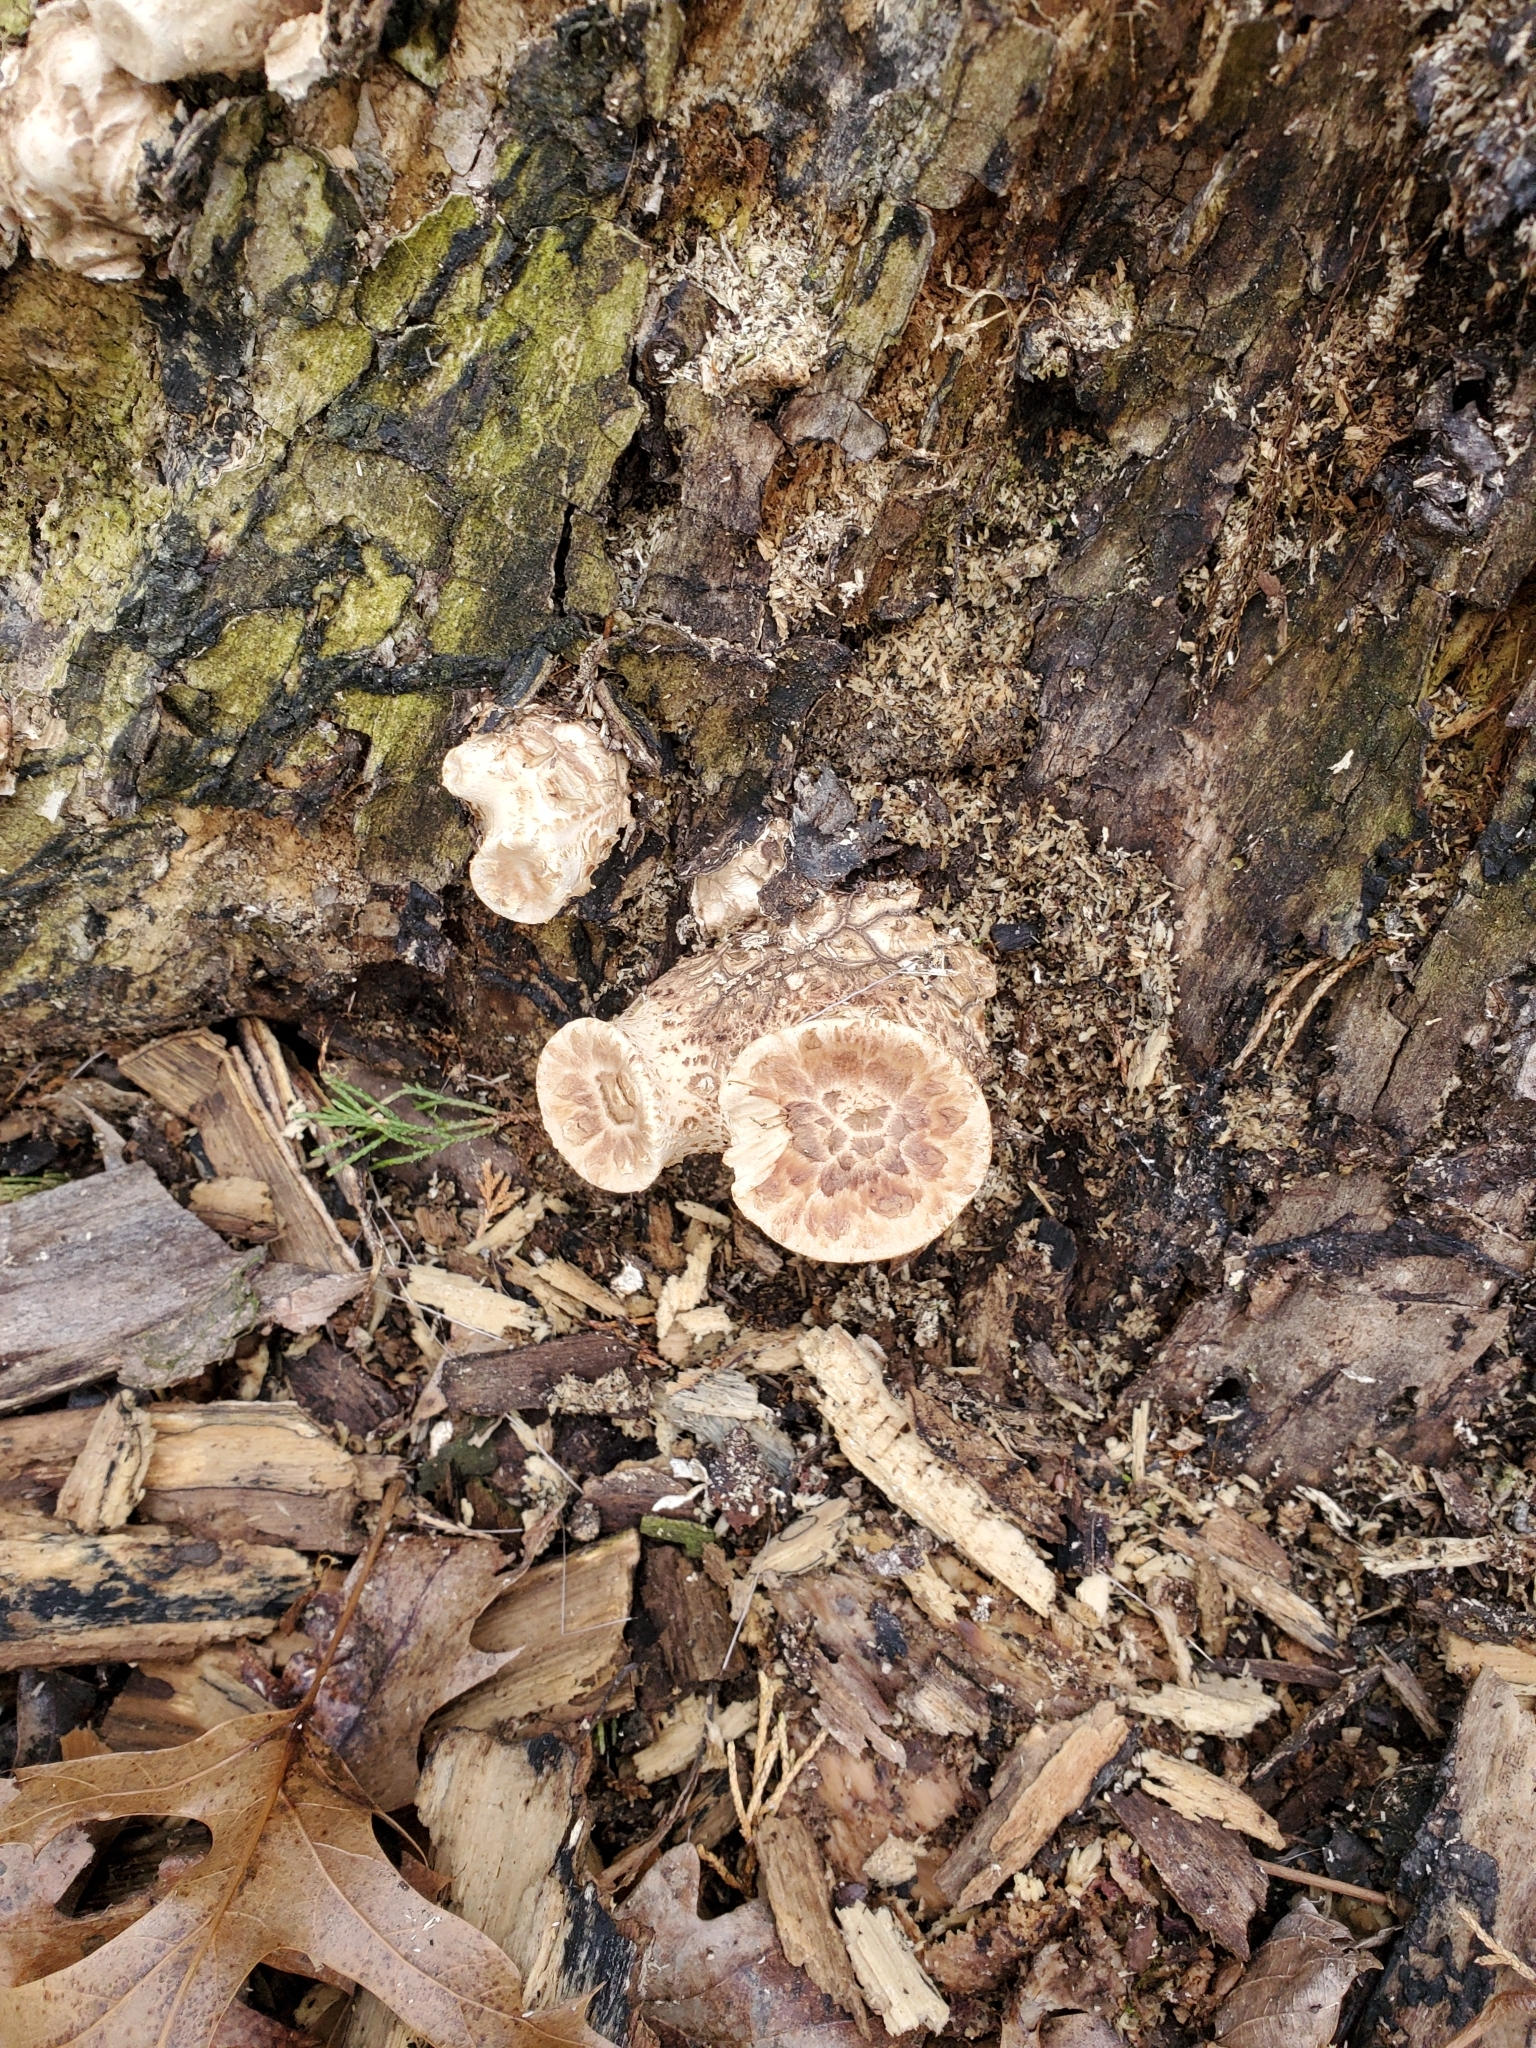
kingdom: Fungi
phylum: Basidiomycota
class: Agaricomycetes
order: Polyporales
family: Polyporaceae
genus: Cerioporus
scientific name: Cerioporus squamosus
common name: Dryad's saddle
